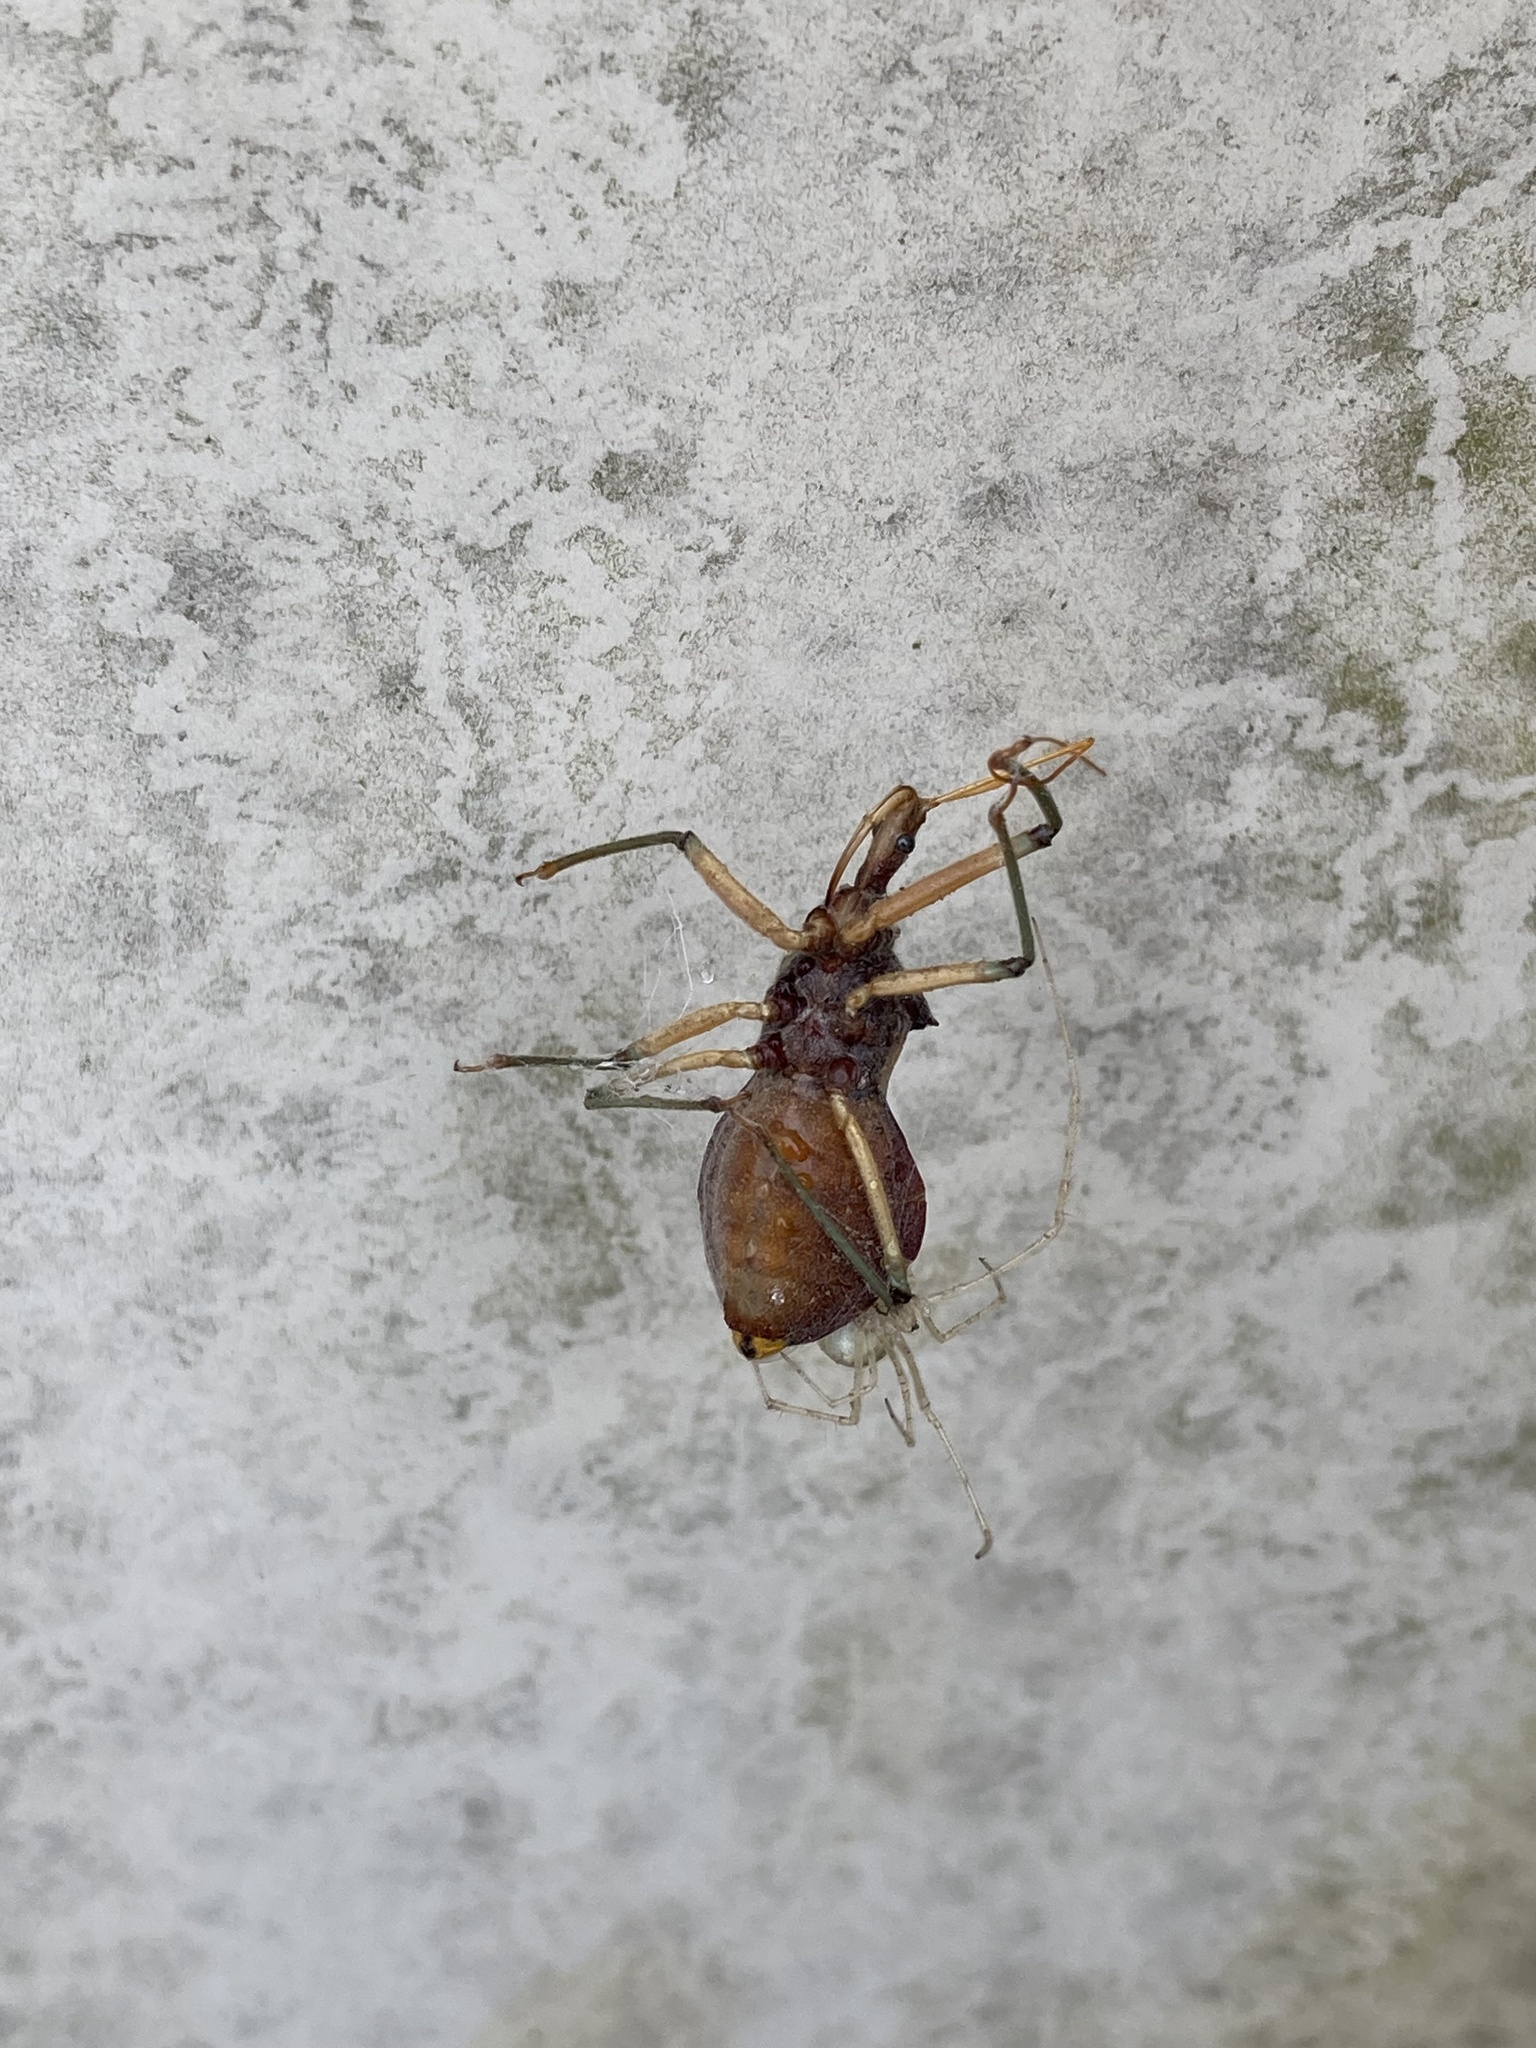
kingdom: Animalia
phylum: Arthropoda
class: Insecta
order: Hemiptera
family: Reduviidae
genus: Pristhesancus
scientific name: Pristhesancus plagipennis
